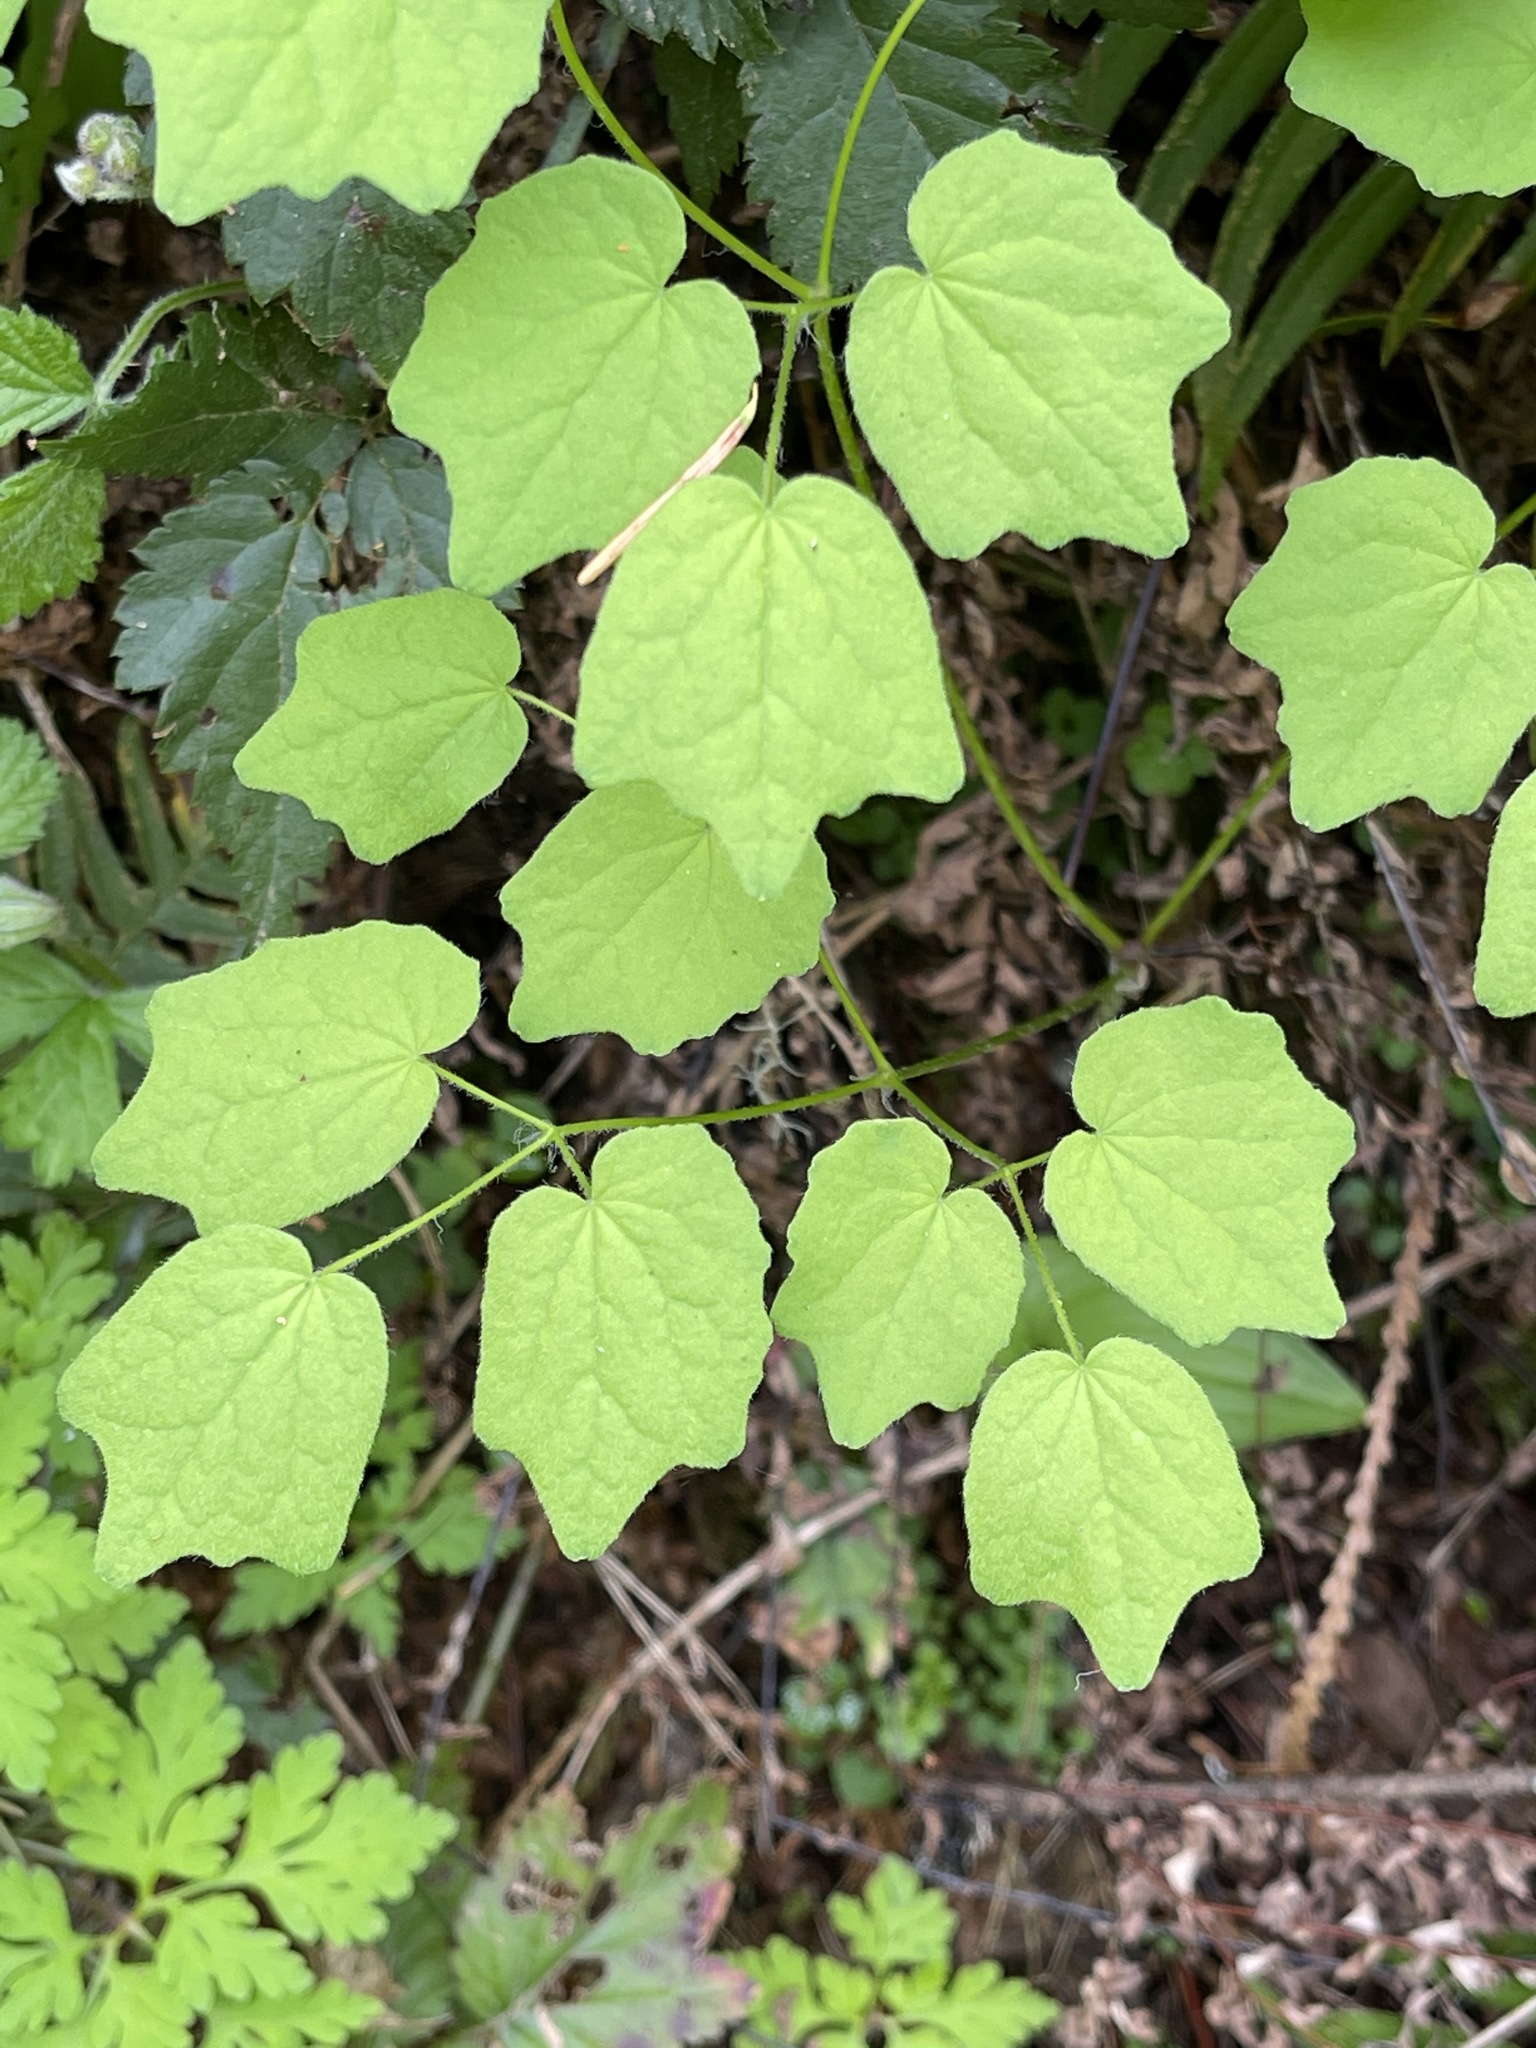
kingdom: Plantae
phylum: Tracheophyta
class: Magnoliopsida
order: Ranunculales
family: Berberidaceae
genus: Vancouveria
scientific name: Vancouveria hexandra
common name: Northern inside-out-flower
